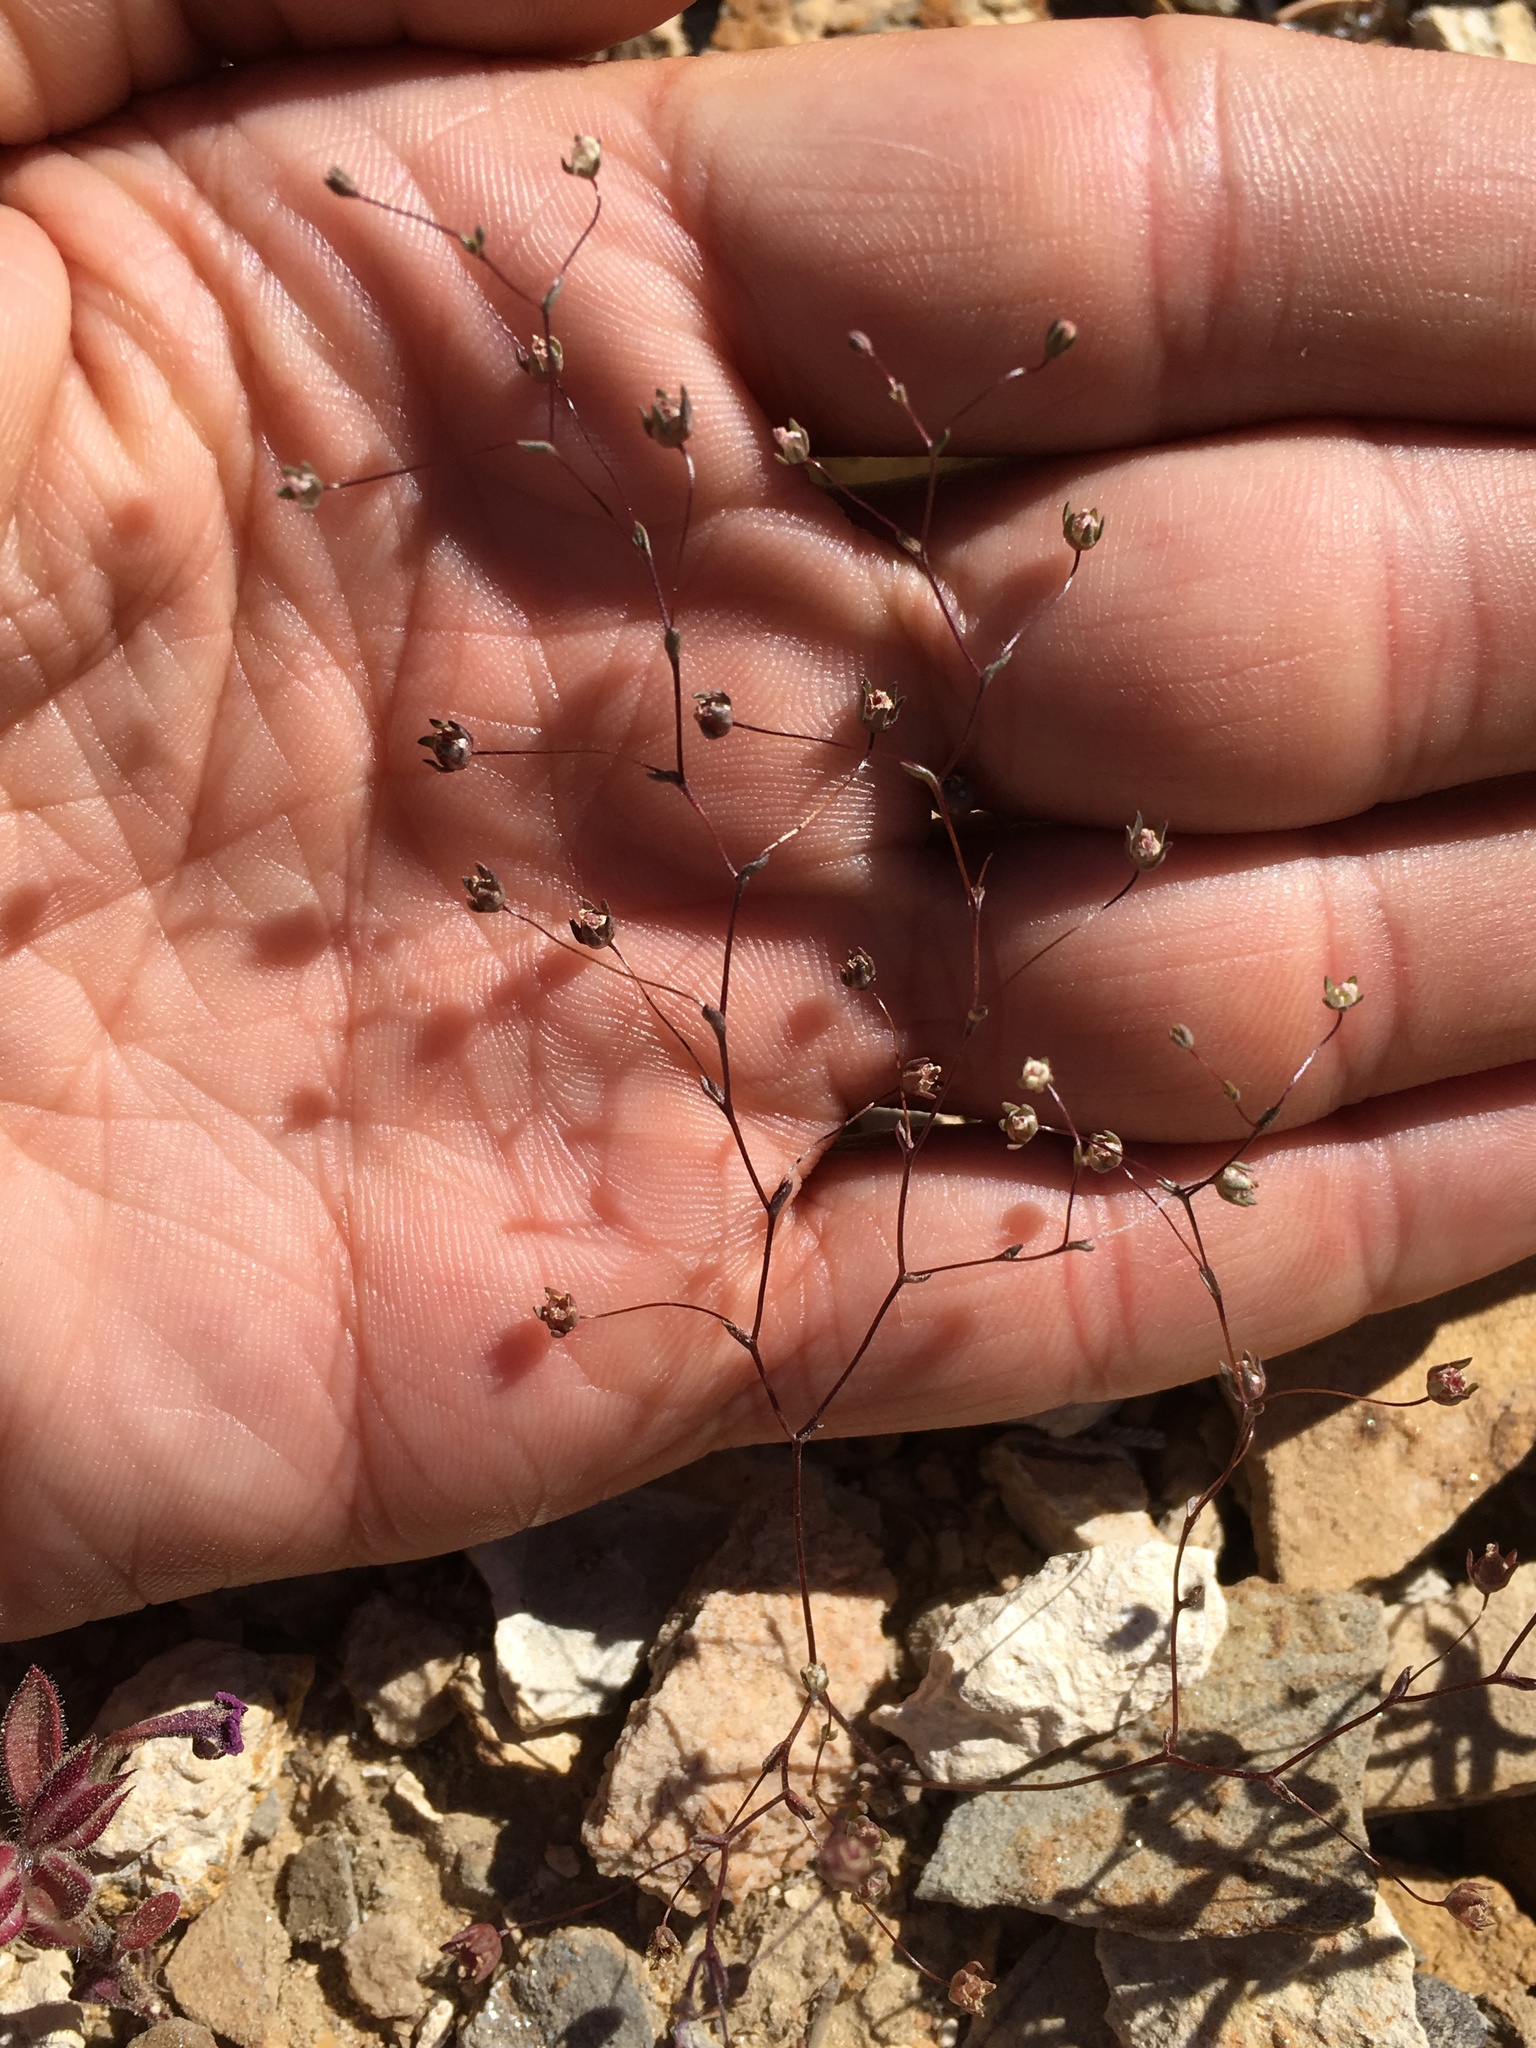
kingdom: Plantae
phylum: Tracheophyta
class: Magnoliopsida
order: Asterales
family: Campanulaceae
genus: Nemacladus
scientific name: Nemacladus inyoensis
